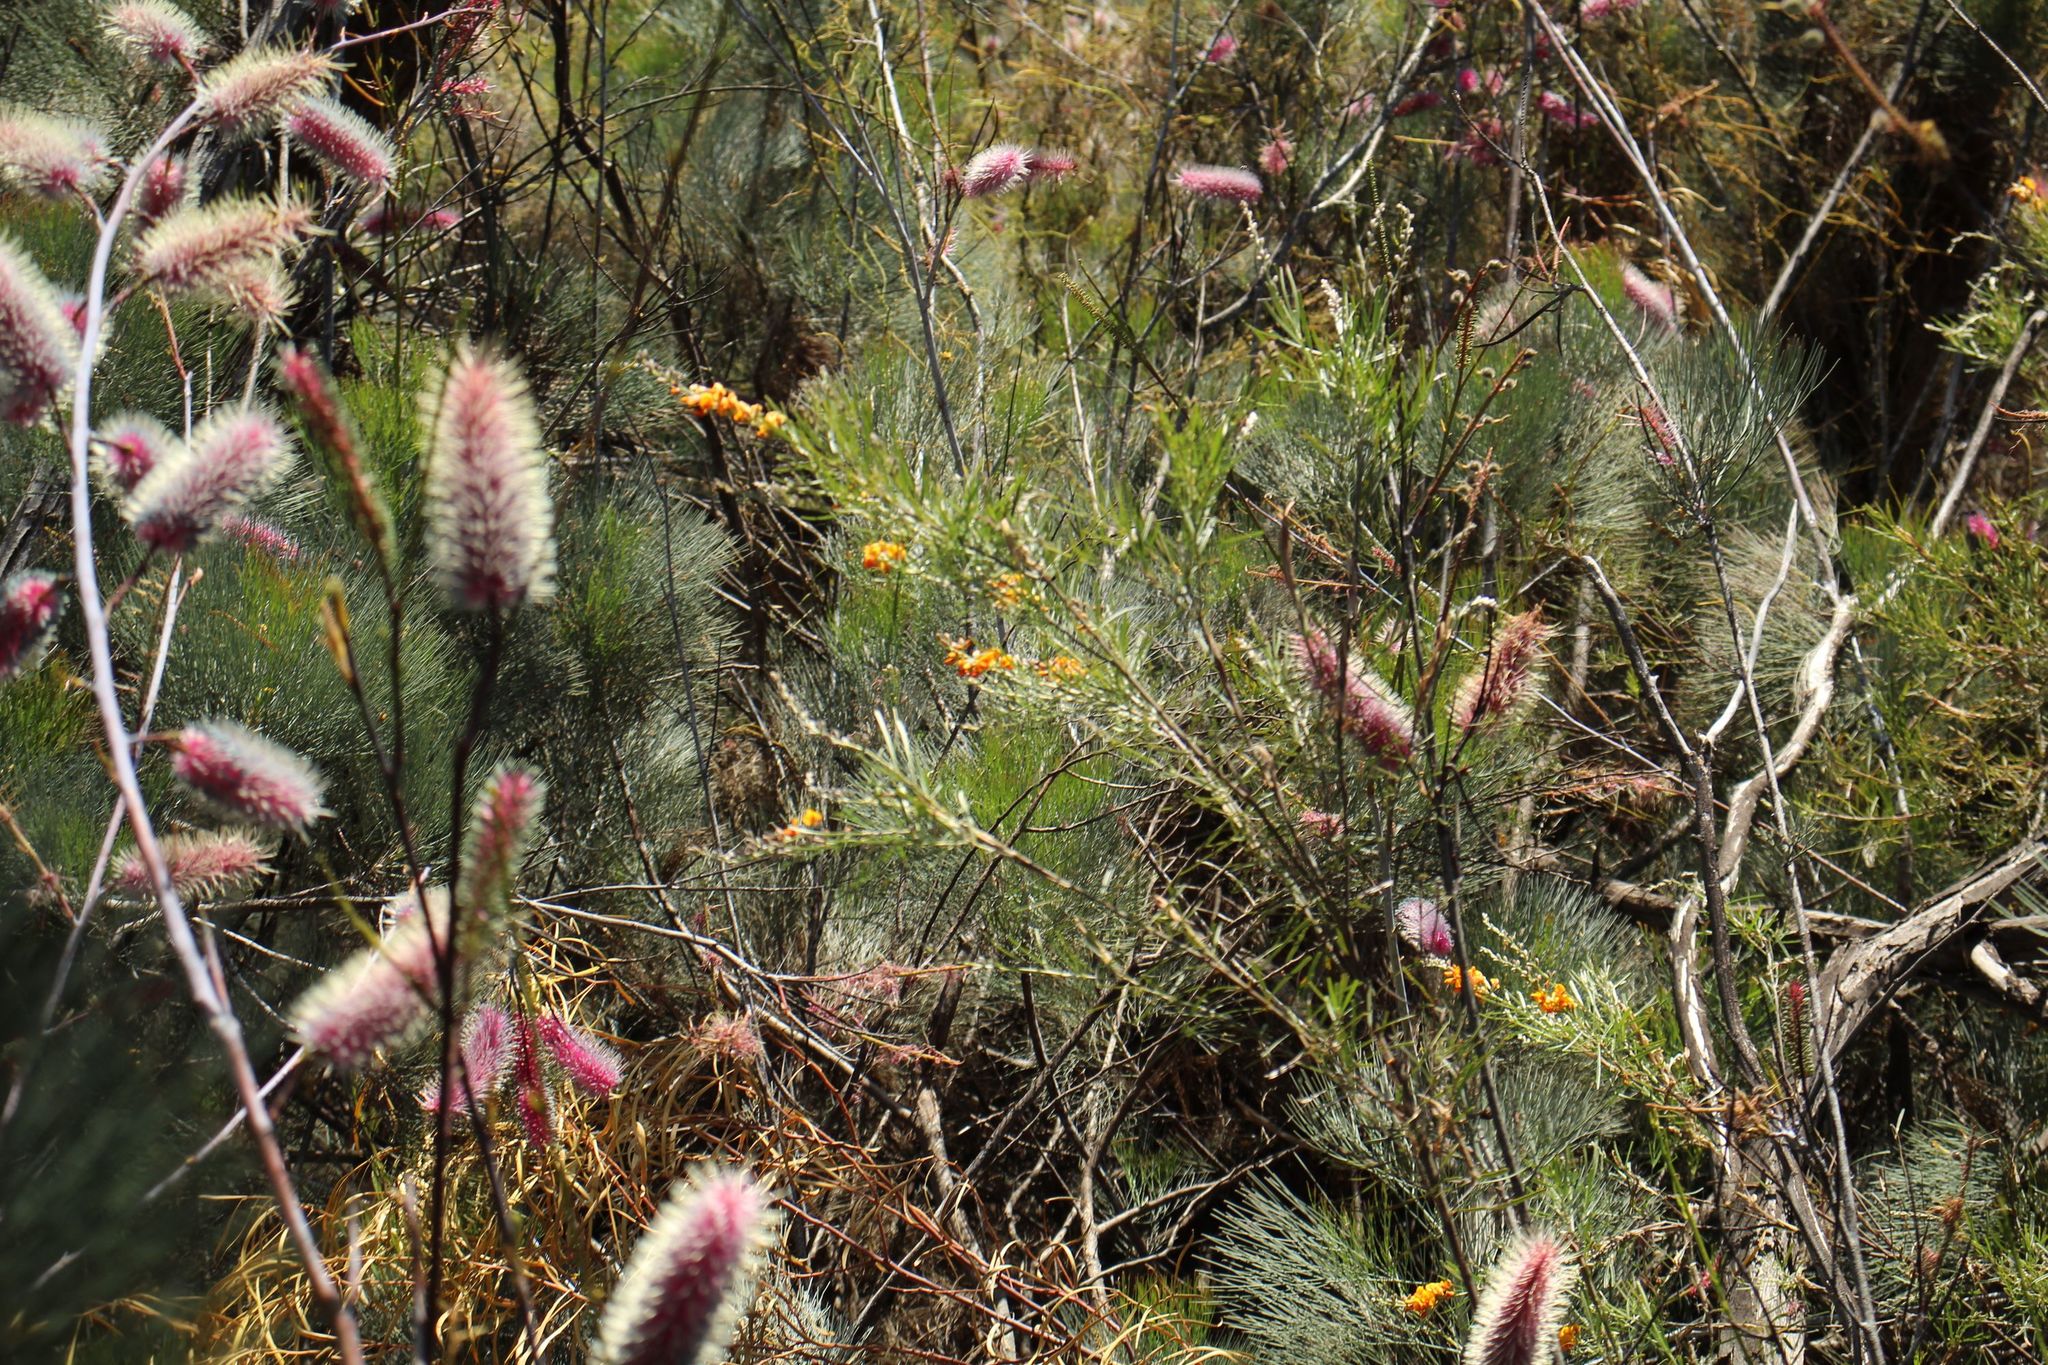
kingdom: Plantae
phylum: Tracheophyta
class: Magnoliopsida
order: Proteales
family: Proteaceae
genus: Grevillea
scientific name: Grevillea petrophiloides
